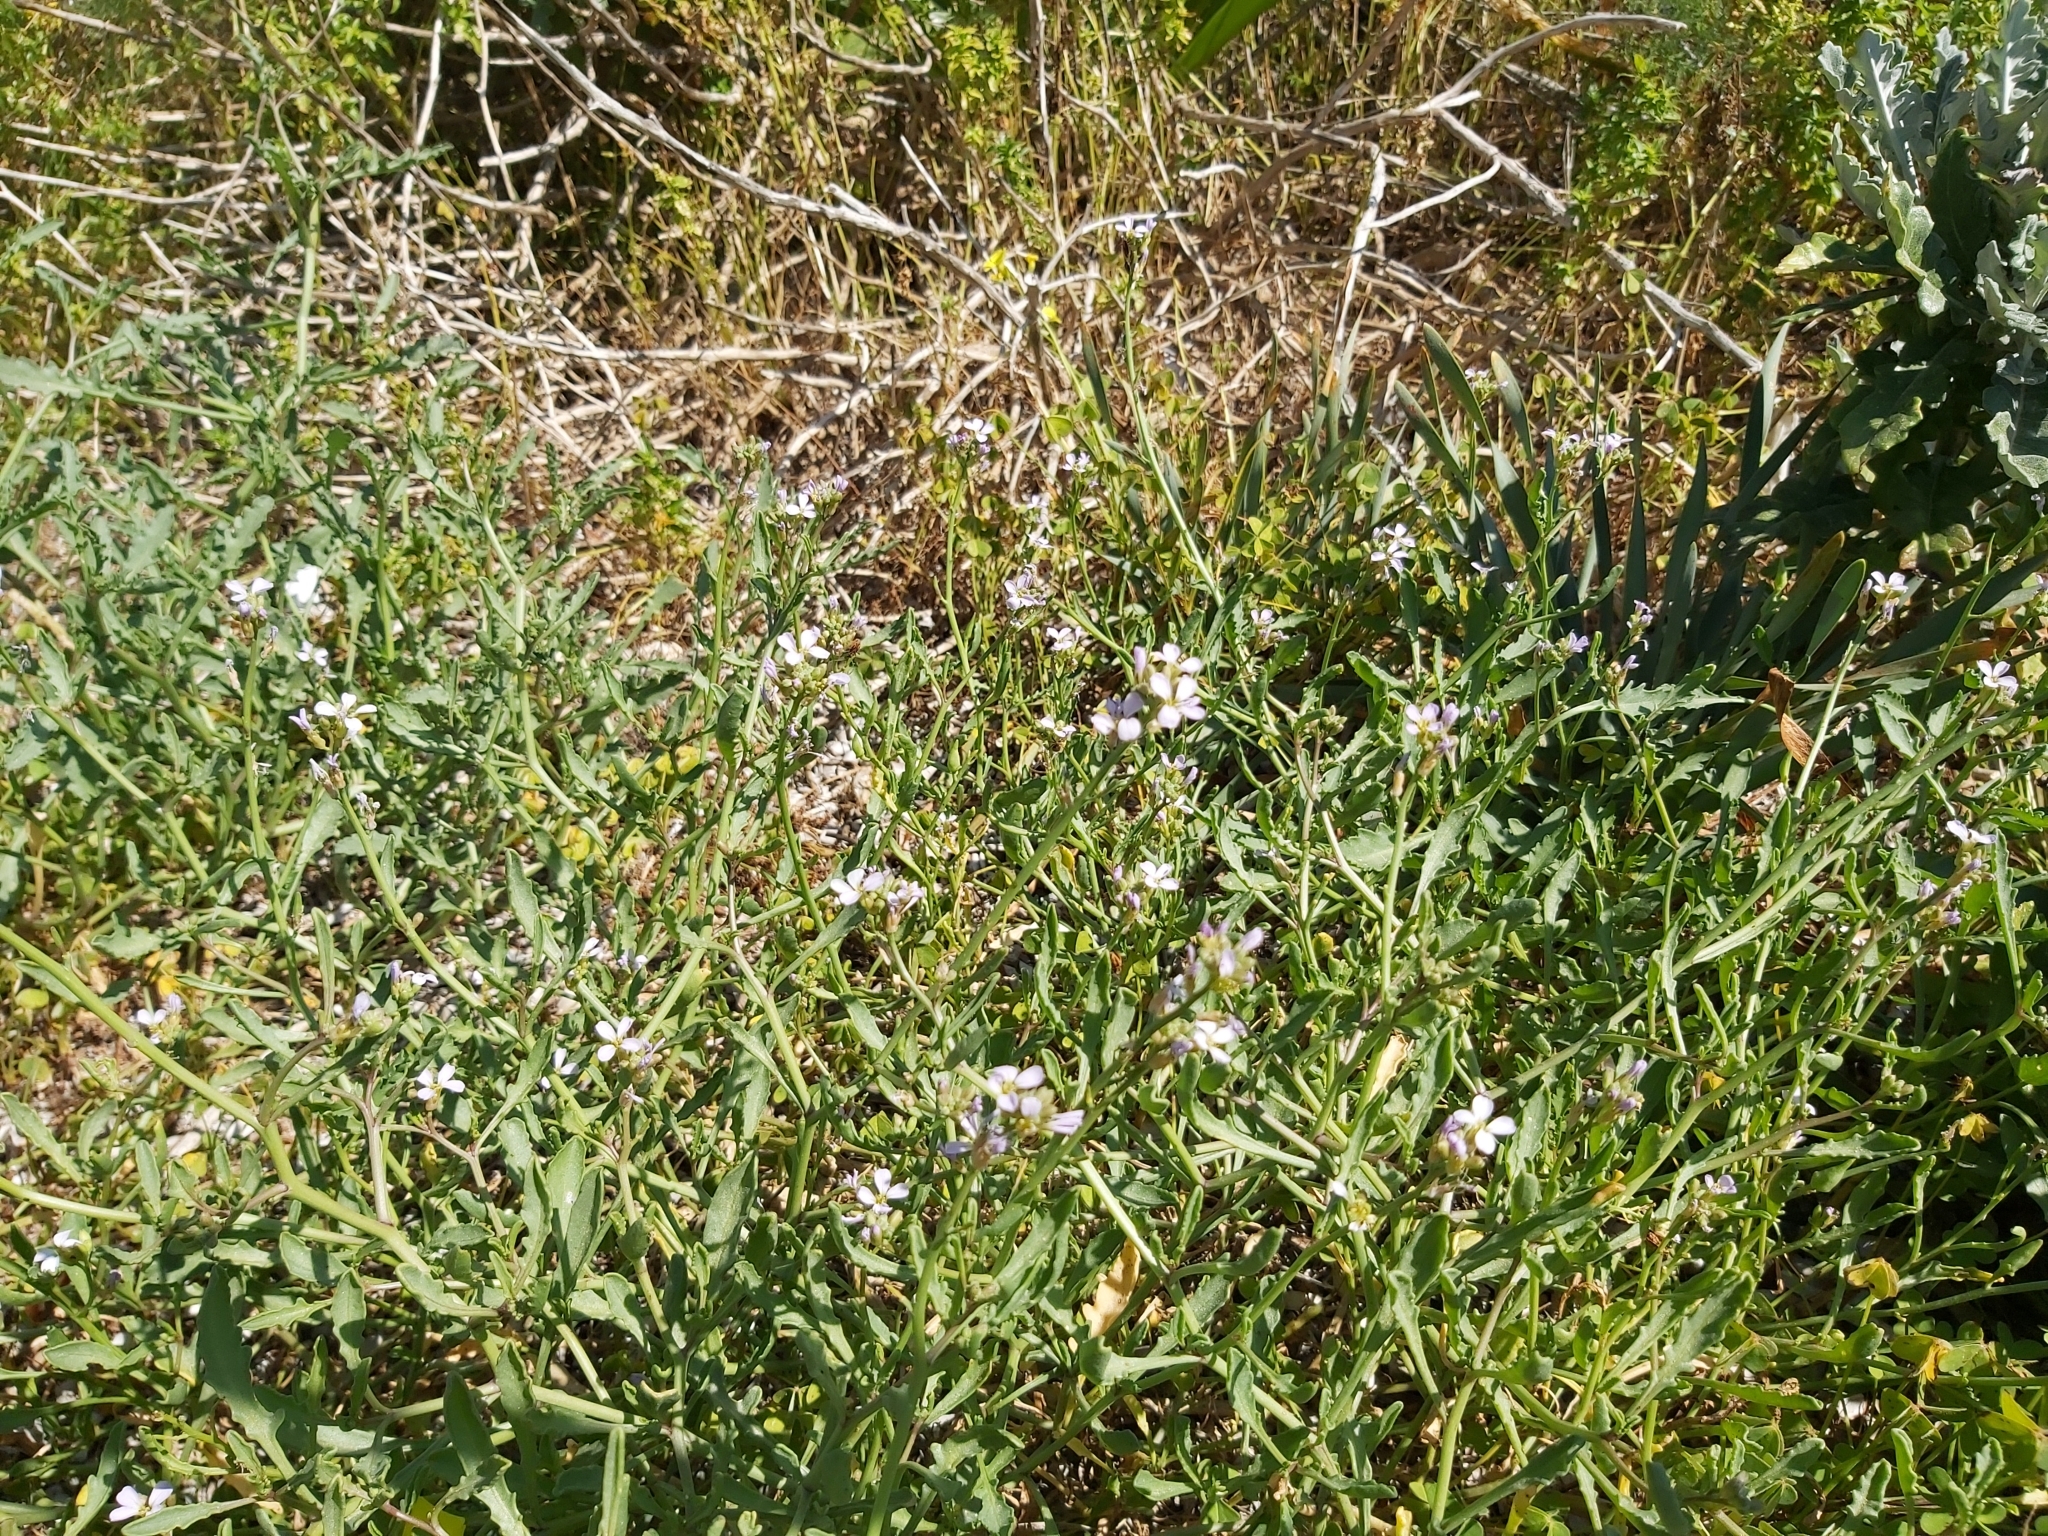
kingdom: Plantae
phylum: Tracheophyta
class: Magnoliopsida
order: Brassicales
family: Brassicaceae
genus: Cakile
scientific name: Cakile maritima
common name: Sea rocket
